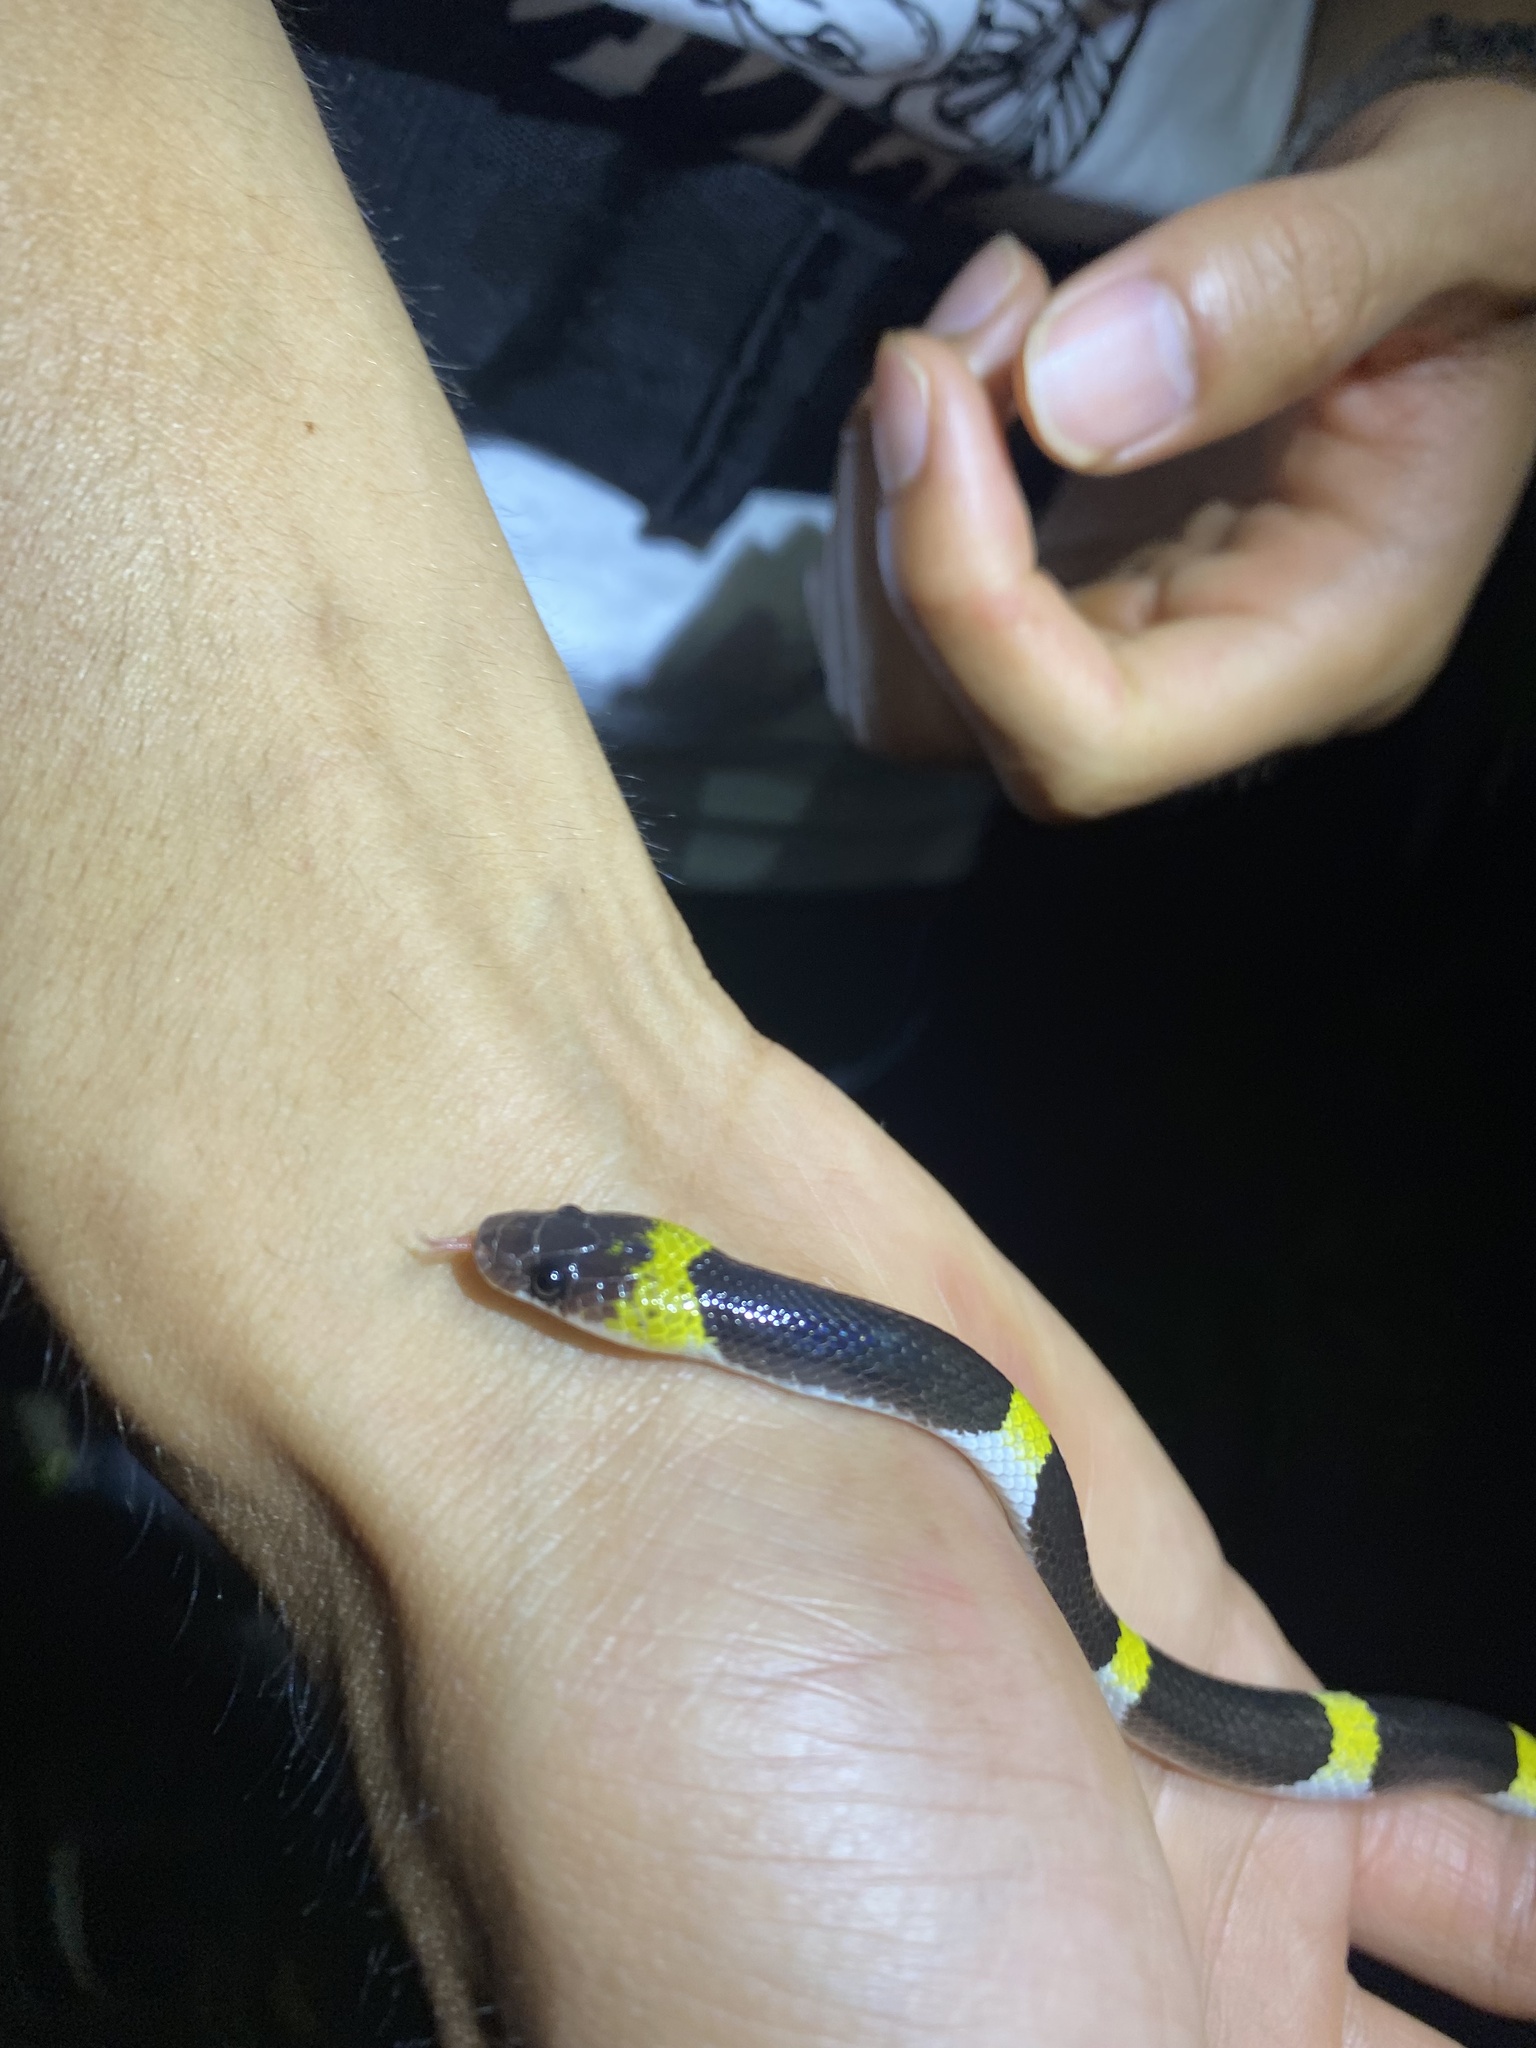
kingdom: Animalia
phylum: Chordata
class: Squamata
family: Colubridae
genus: Lycodon
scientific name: Lycodon laoensis
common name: Laotian wolf snake
